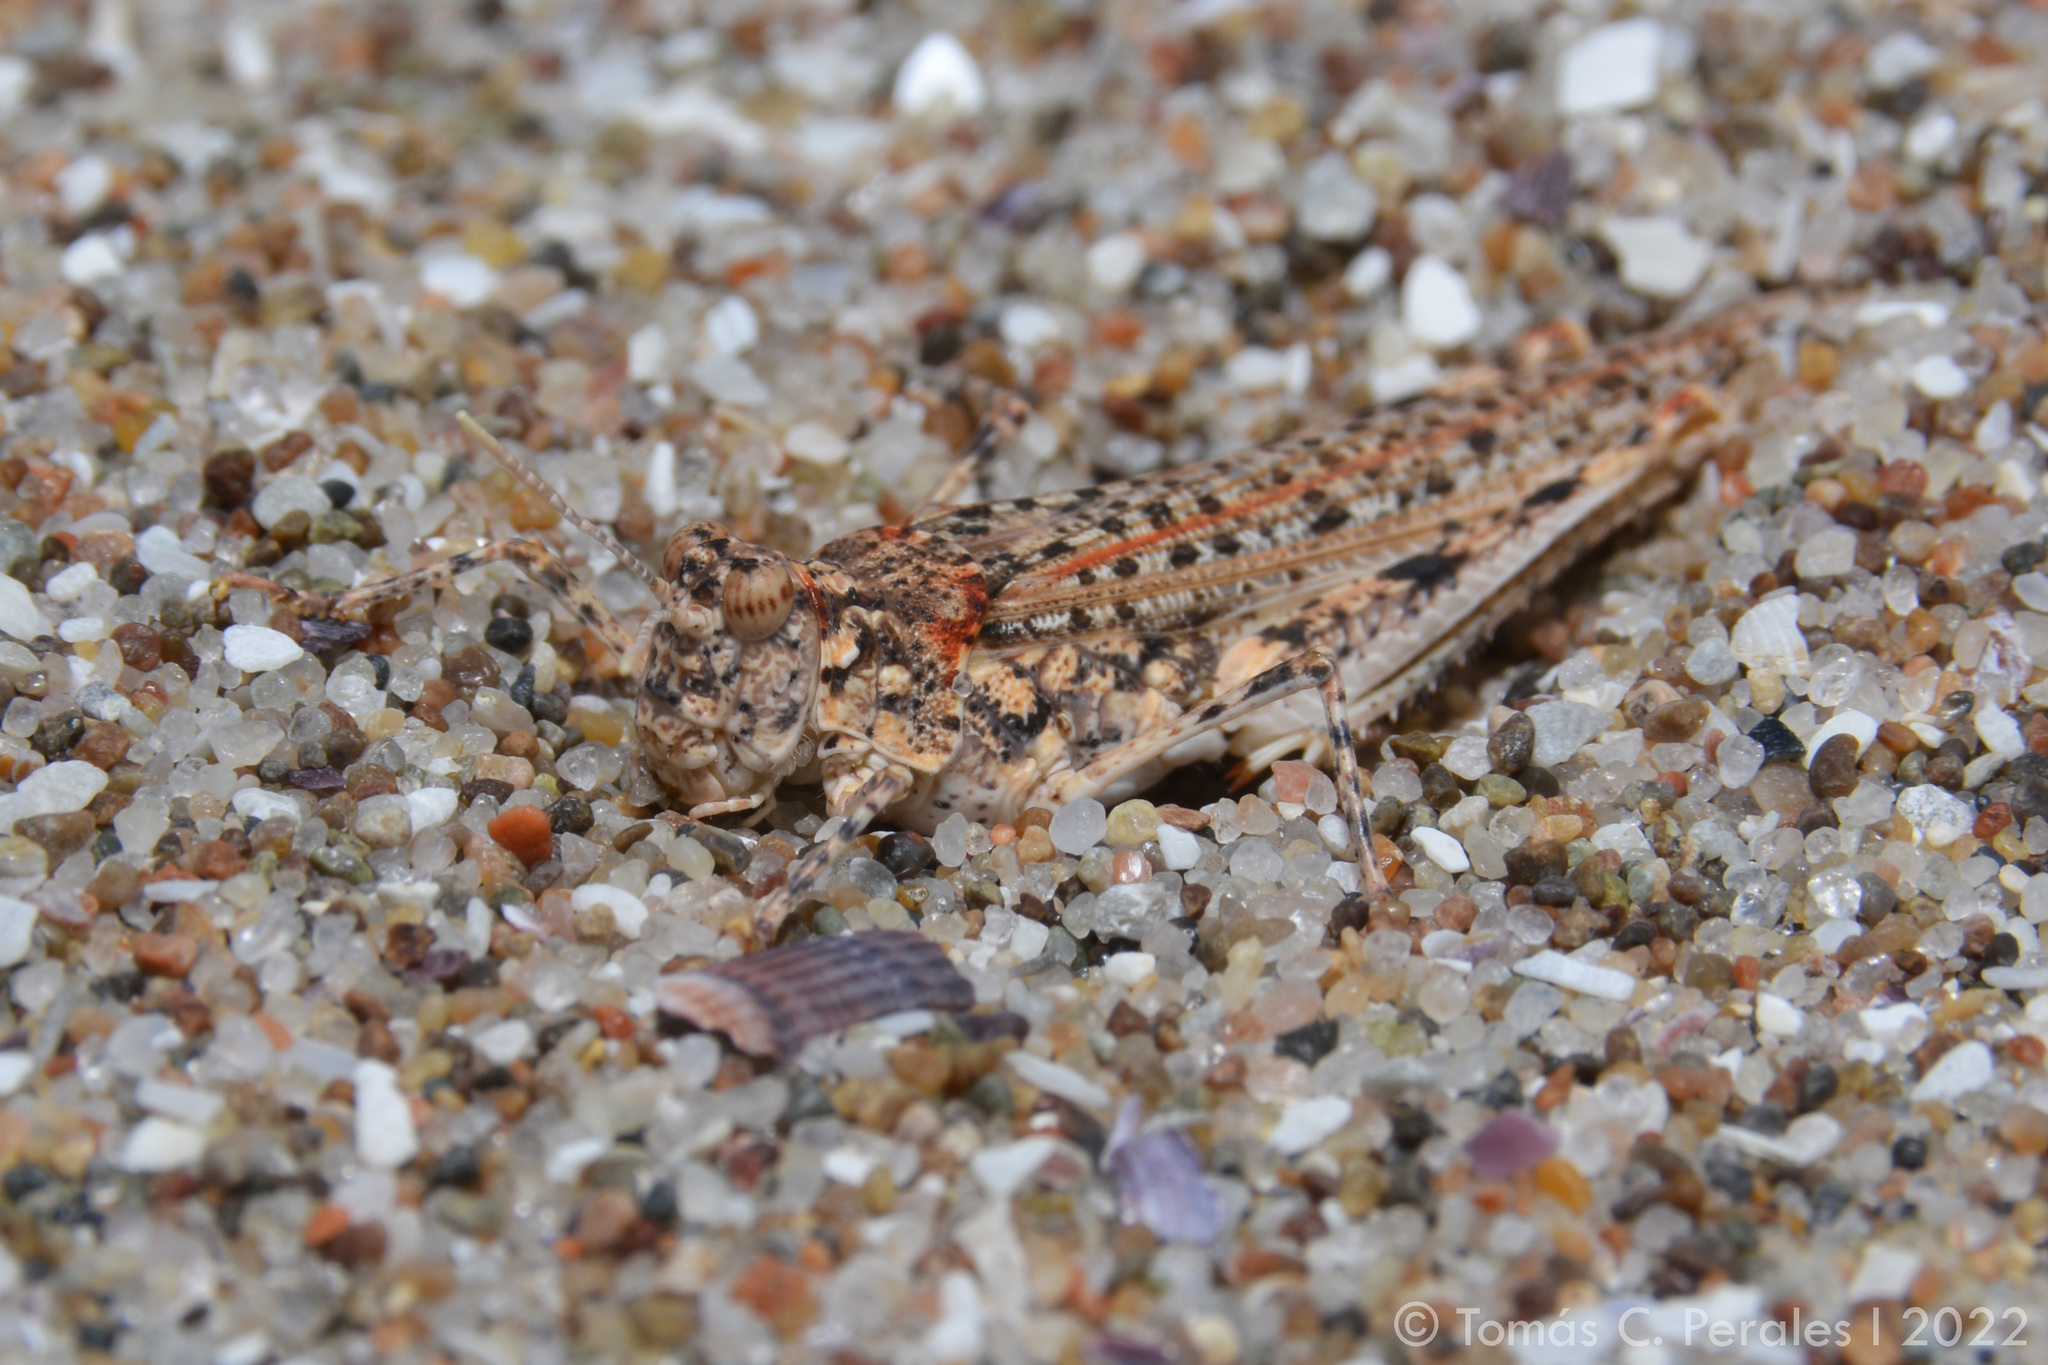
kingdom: Animalia
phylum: Arthropoda
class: Insecta
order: Orthoptera
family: Ommexechidae
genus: Calcitrena
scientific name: Calcitrena maculosa
